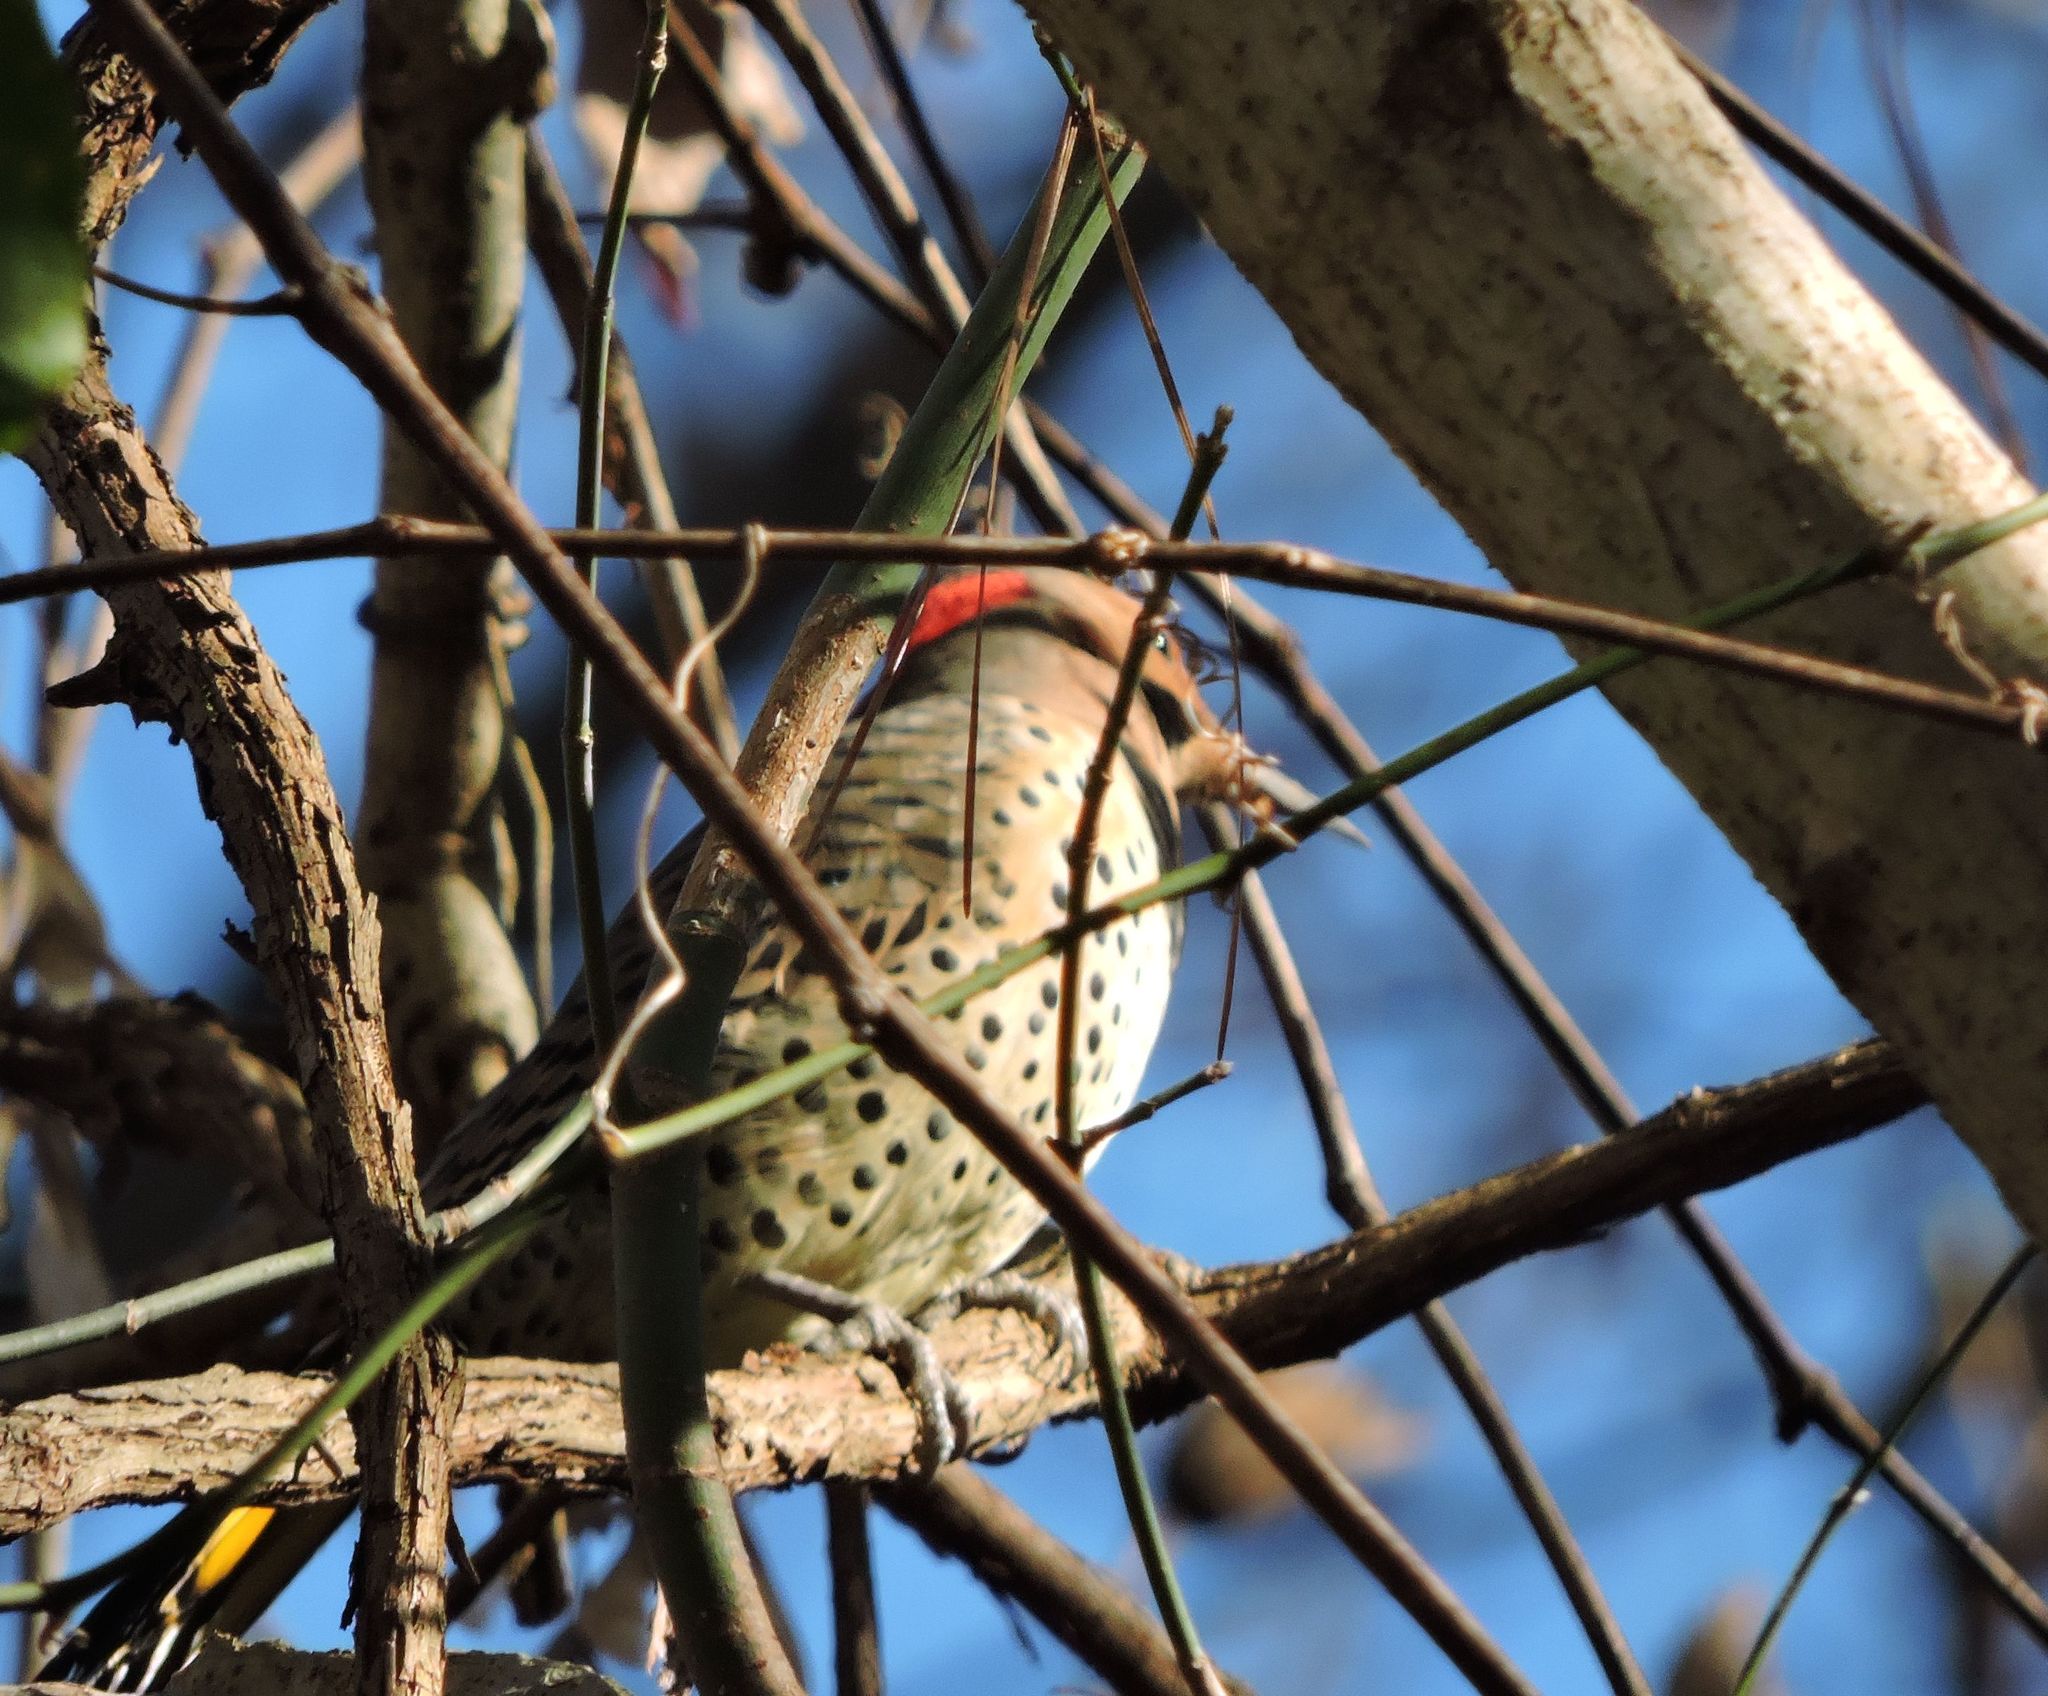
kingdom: Animalia
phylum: Chordata
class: Aves
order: Piciformes
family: Picidae
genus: Colaptes
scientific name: Colaptes auratus
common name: Northern flicker
